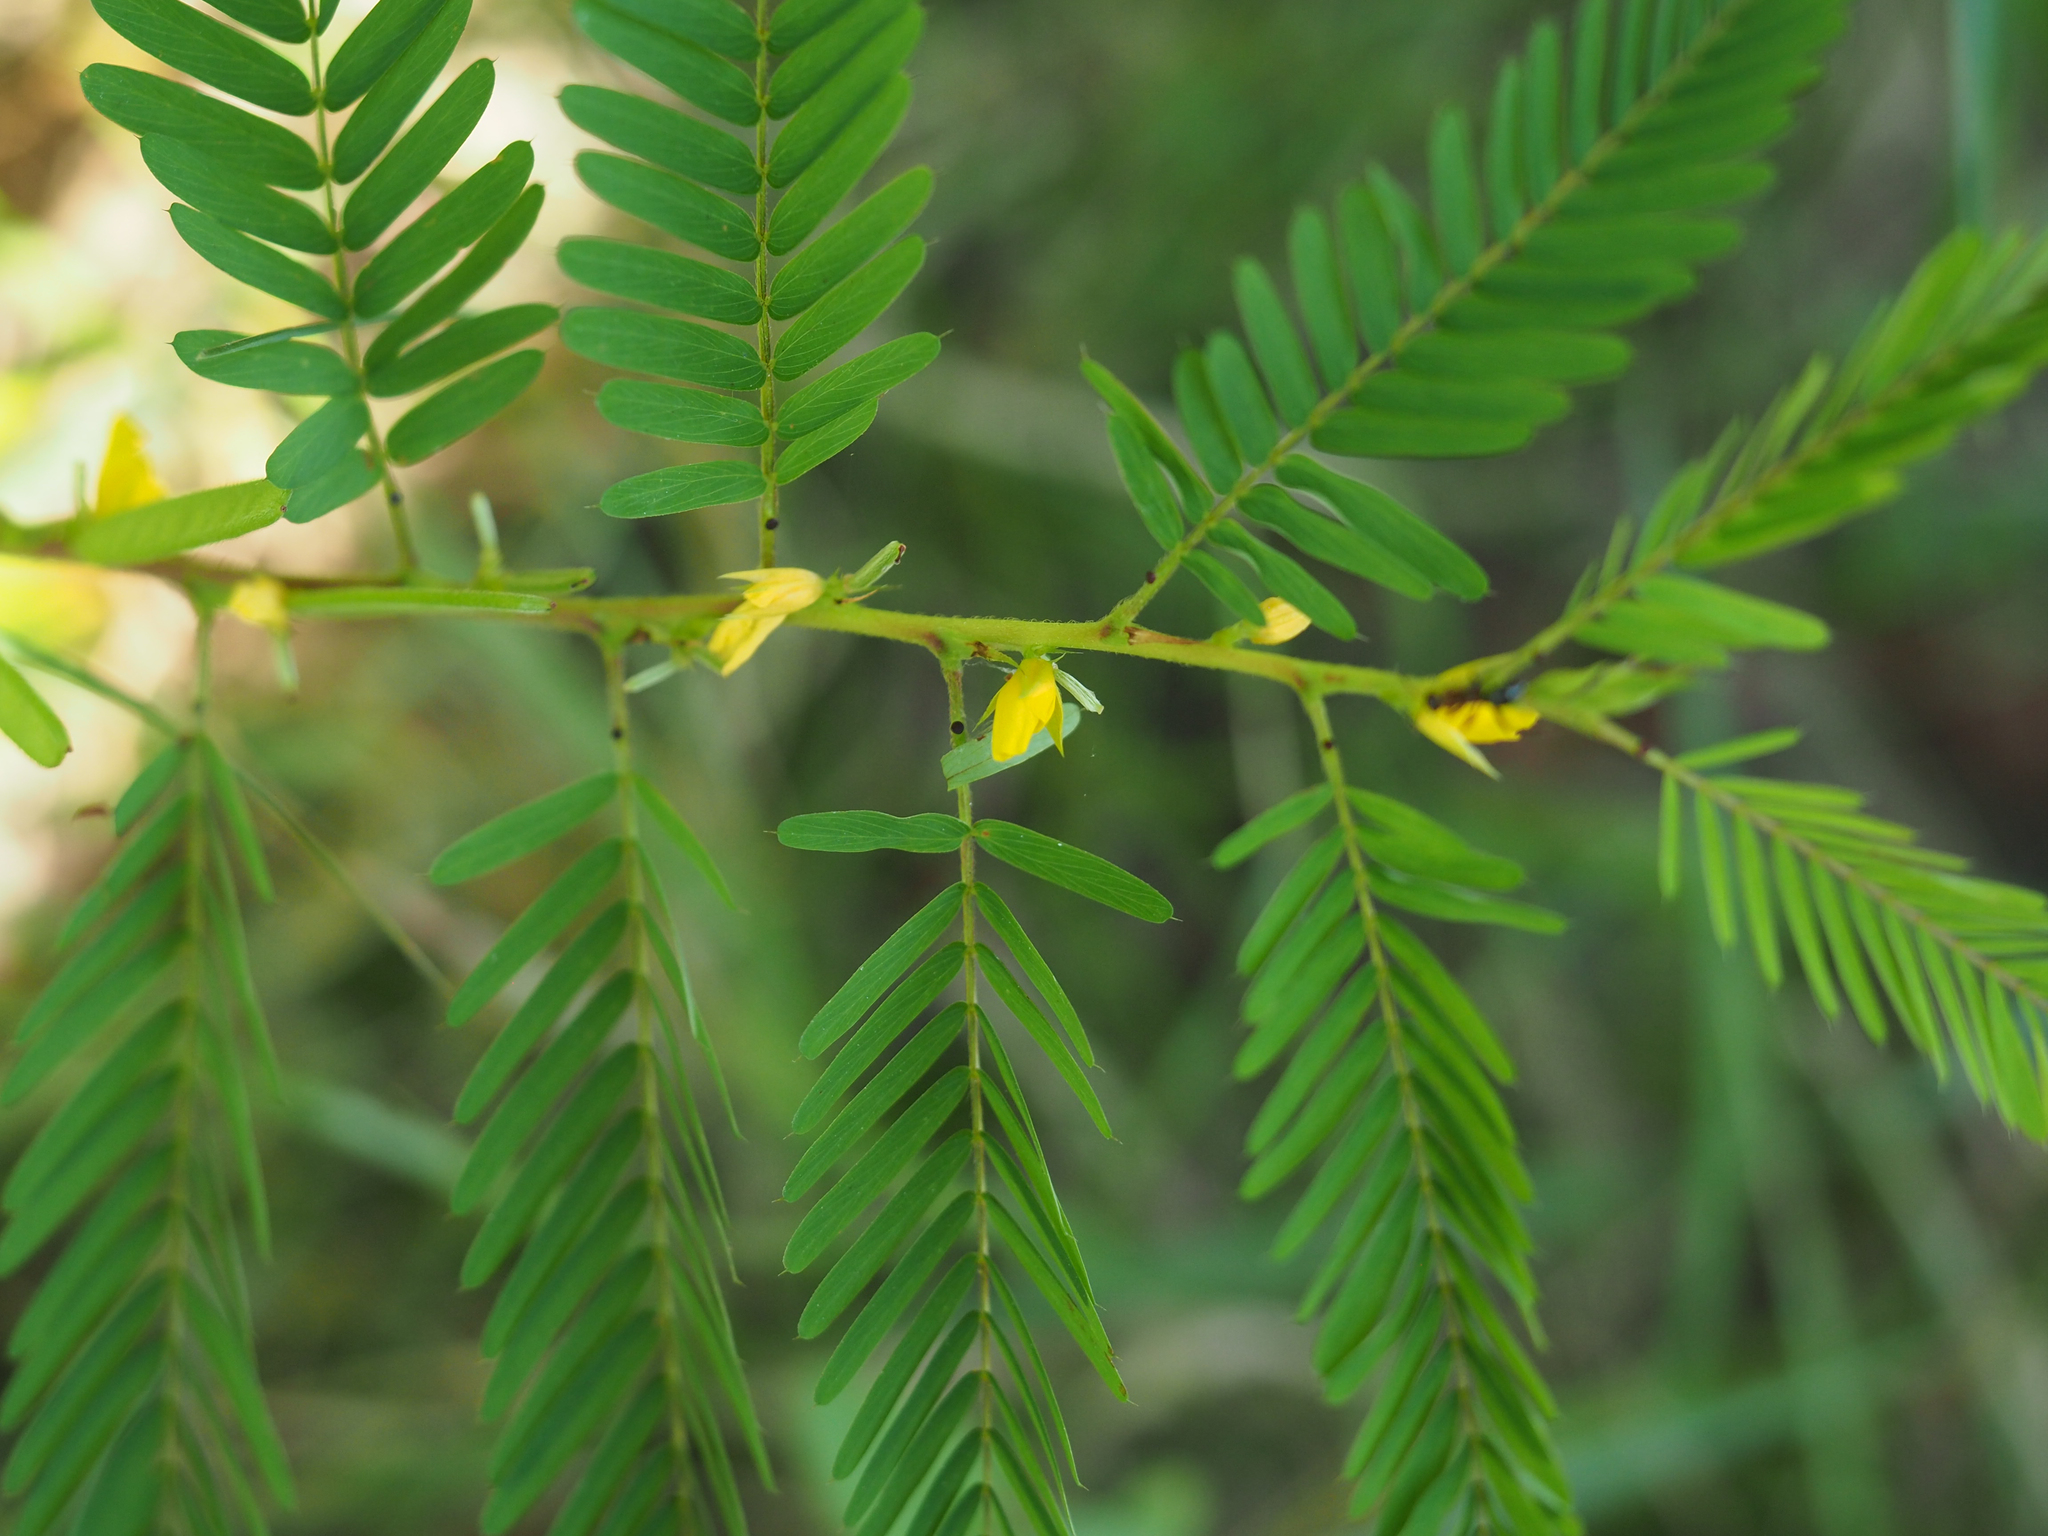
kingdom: Plantae
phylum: Tracheophyta
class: Magnoliopsida
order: Fabales
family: Fabaceae
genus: Chamaecrista
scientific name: Chamaecrista nictitans
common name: Sensitive cassia
